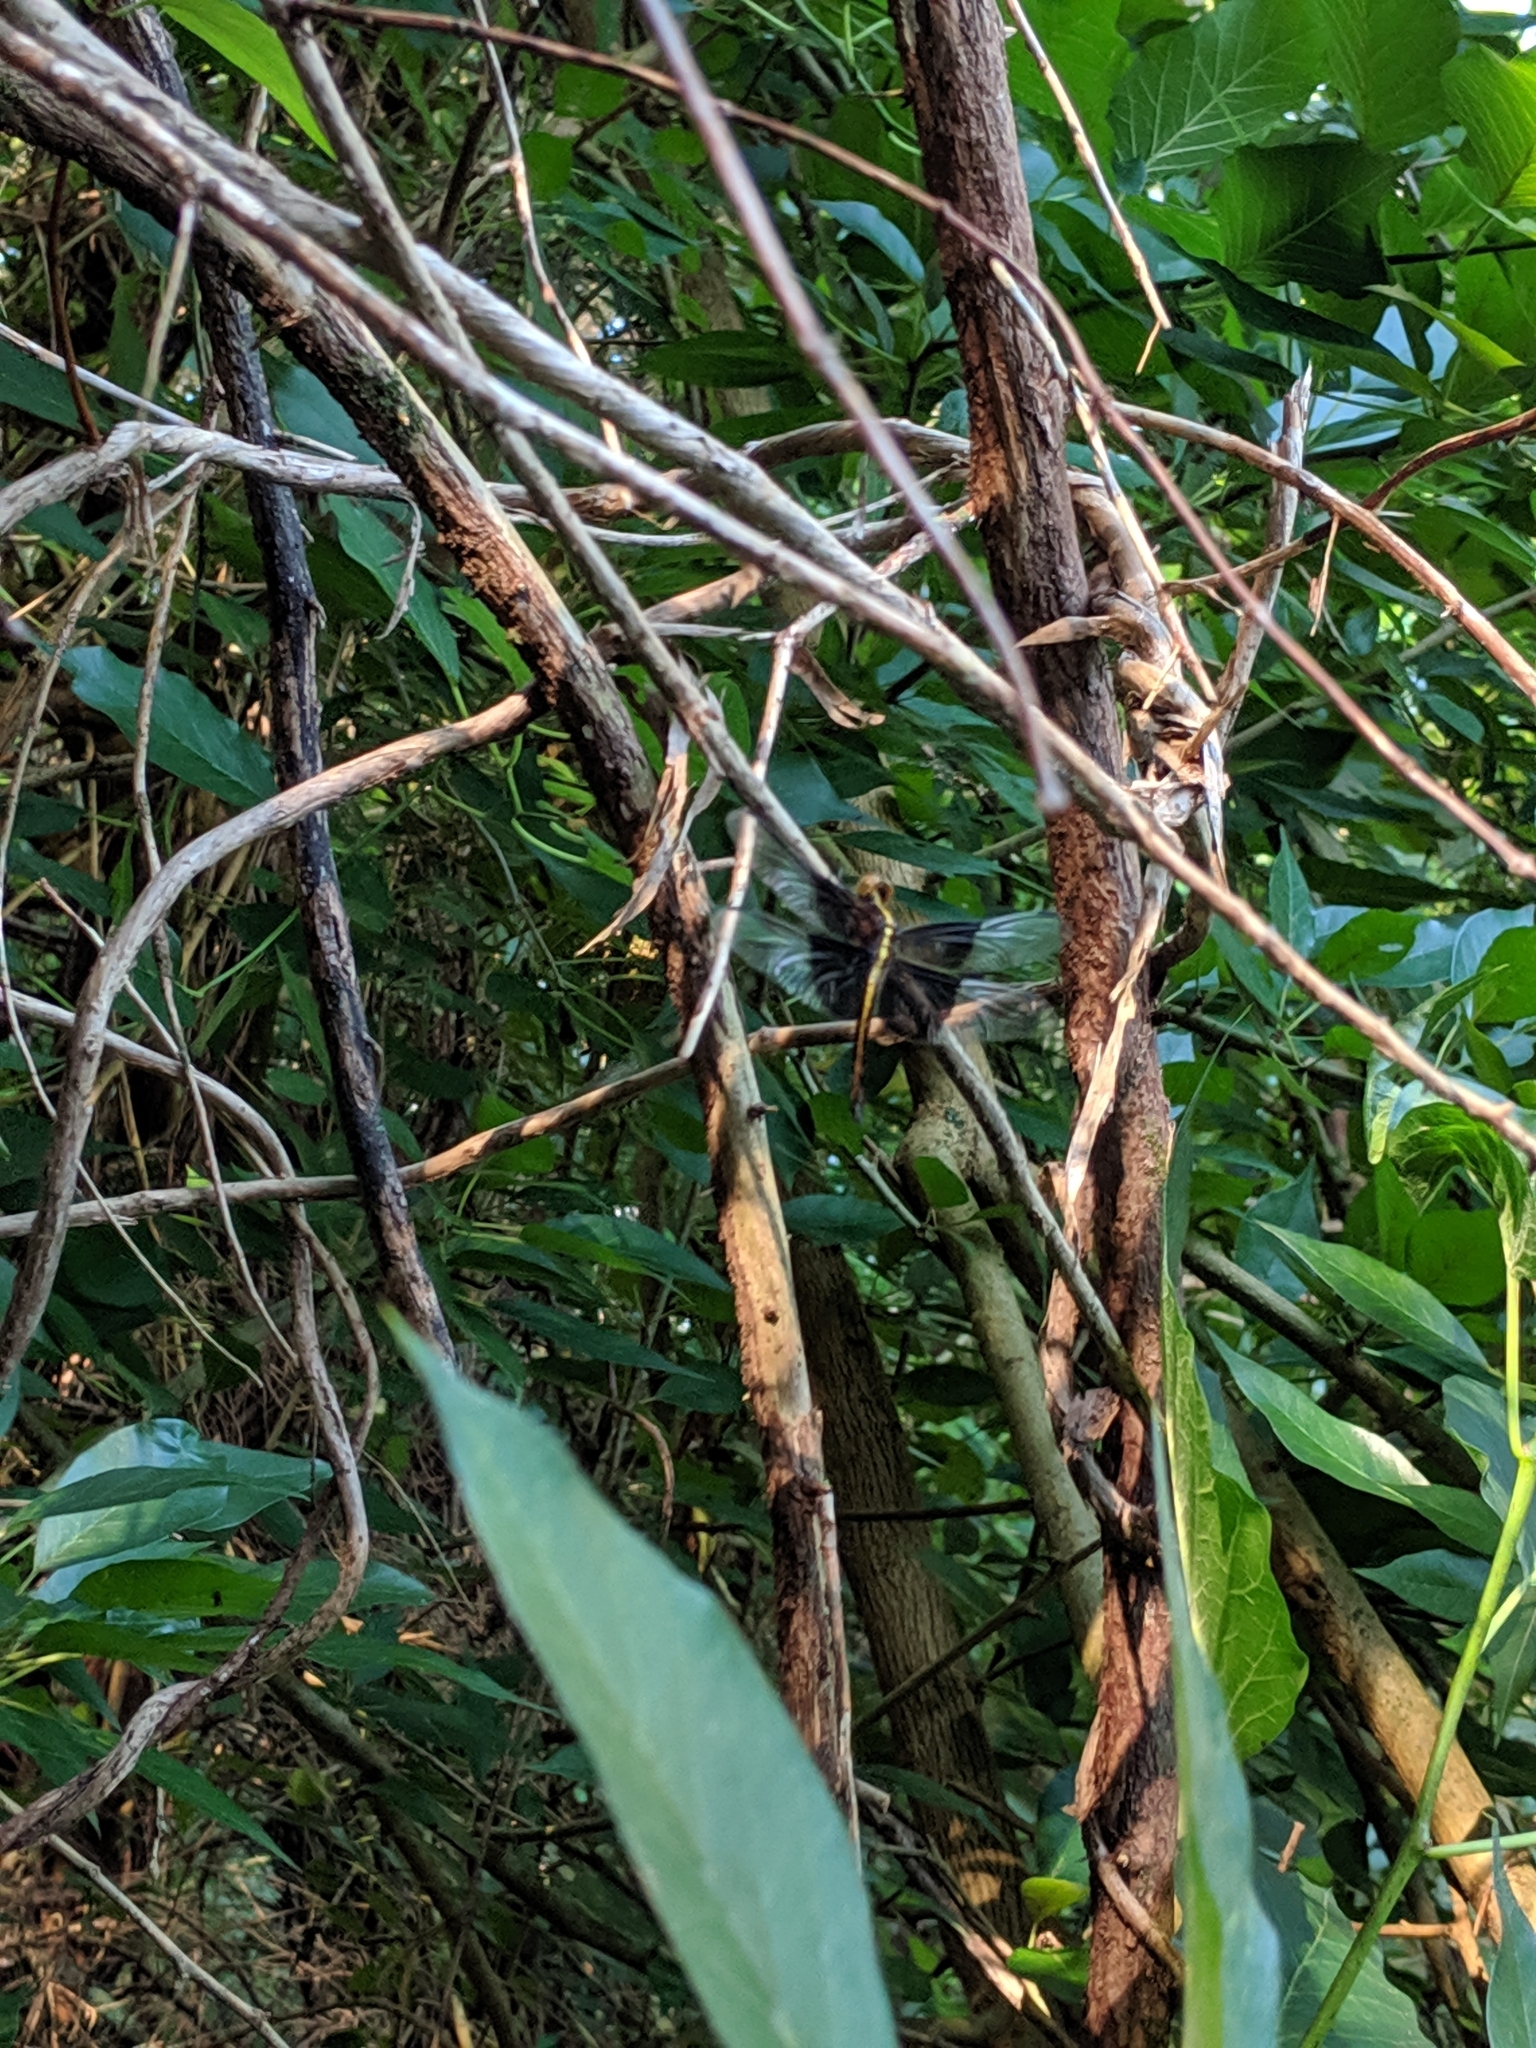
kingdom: Animalia
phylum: Arthropoda
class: Insecta
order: Odonata
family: Libellulidae
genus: Libellula
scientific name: Libellula luctuosa
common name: Widow skimmer
